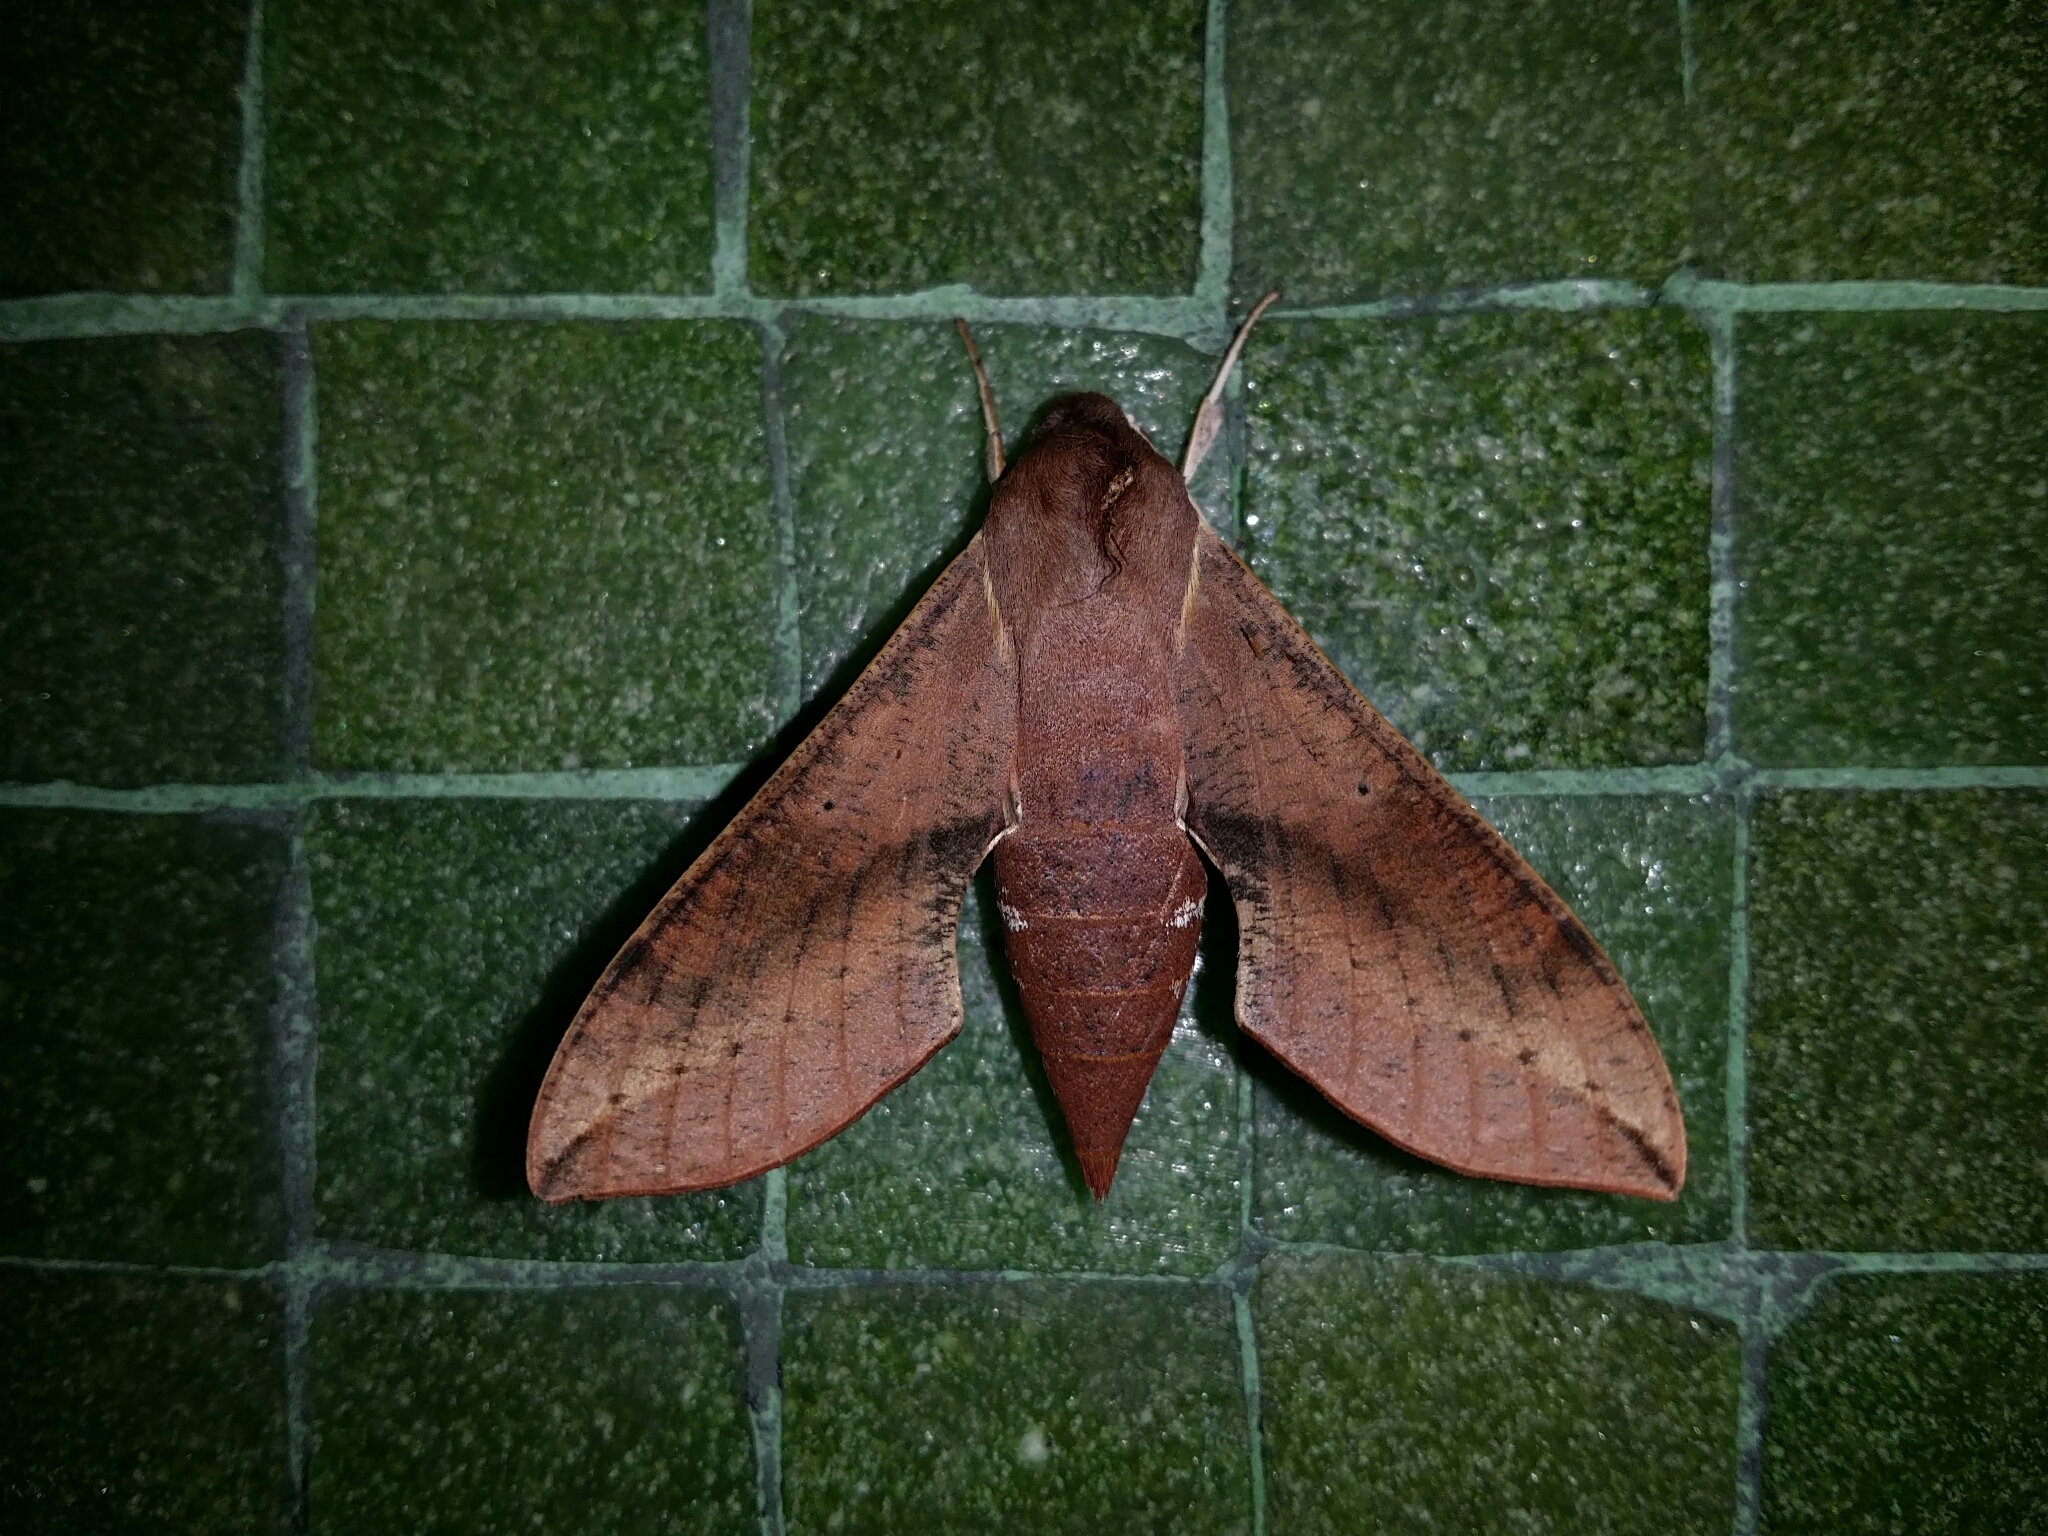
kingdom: Animalia
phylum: Arthropoda
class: Insecta
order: Lepidoptera
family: Sphingidae
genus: Hippotion
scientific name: Hippotion scrofa
